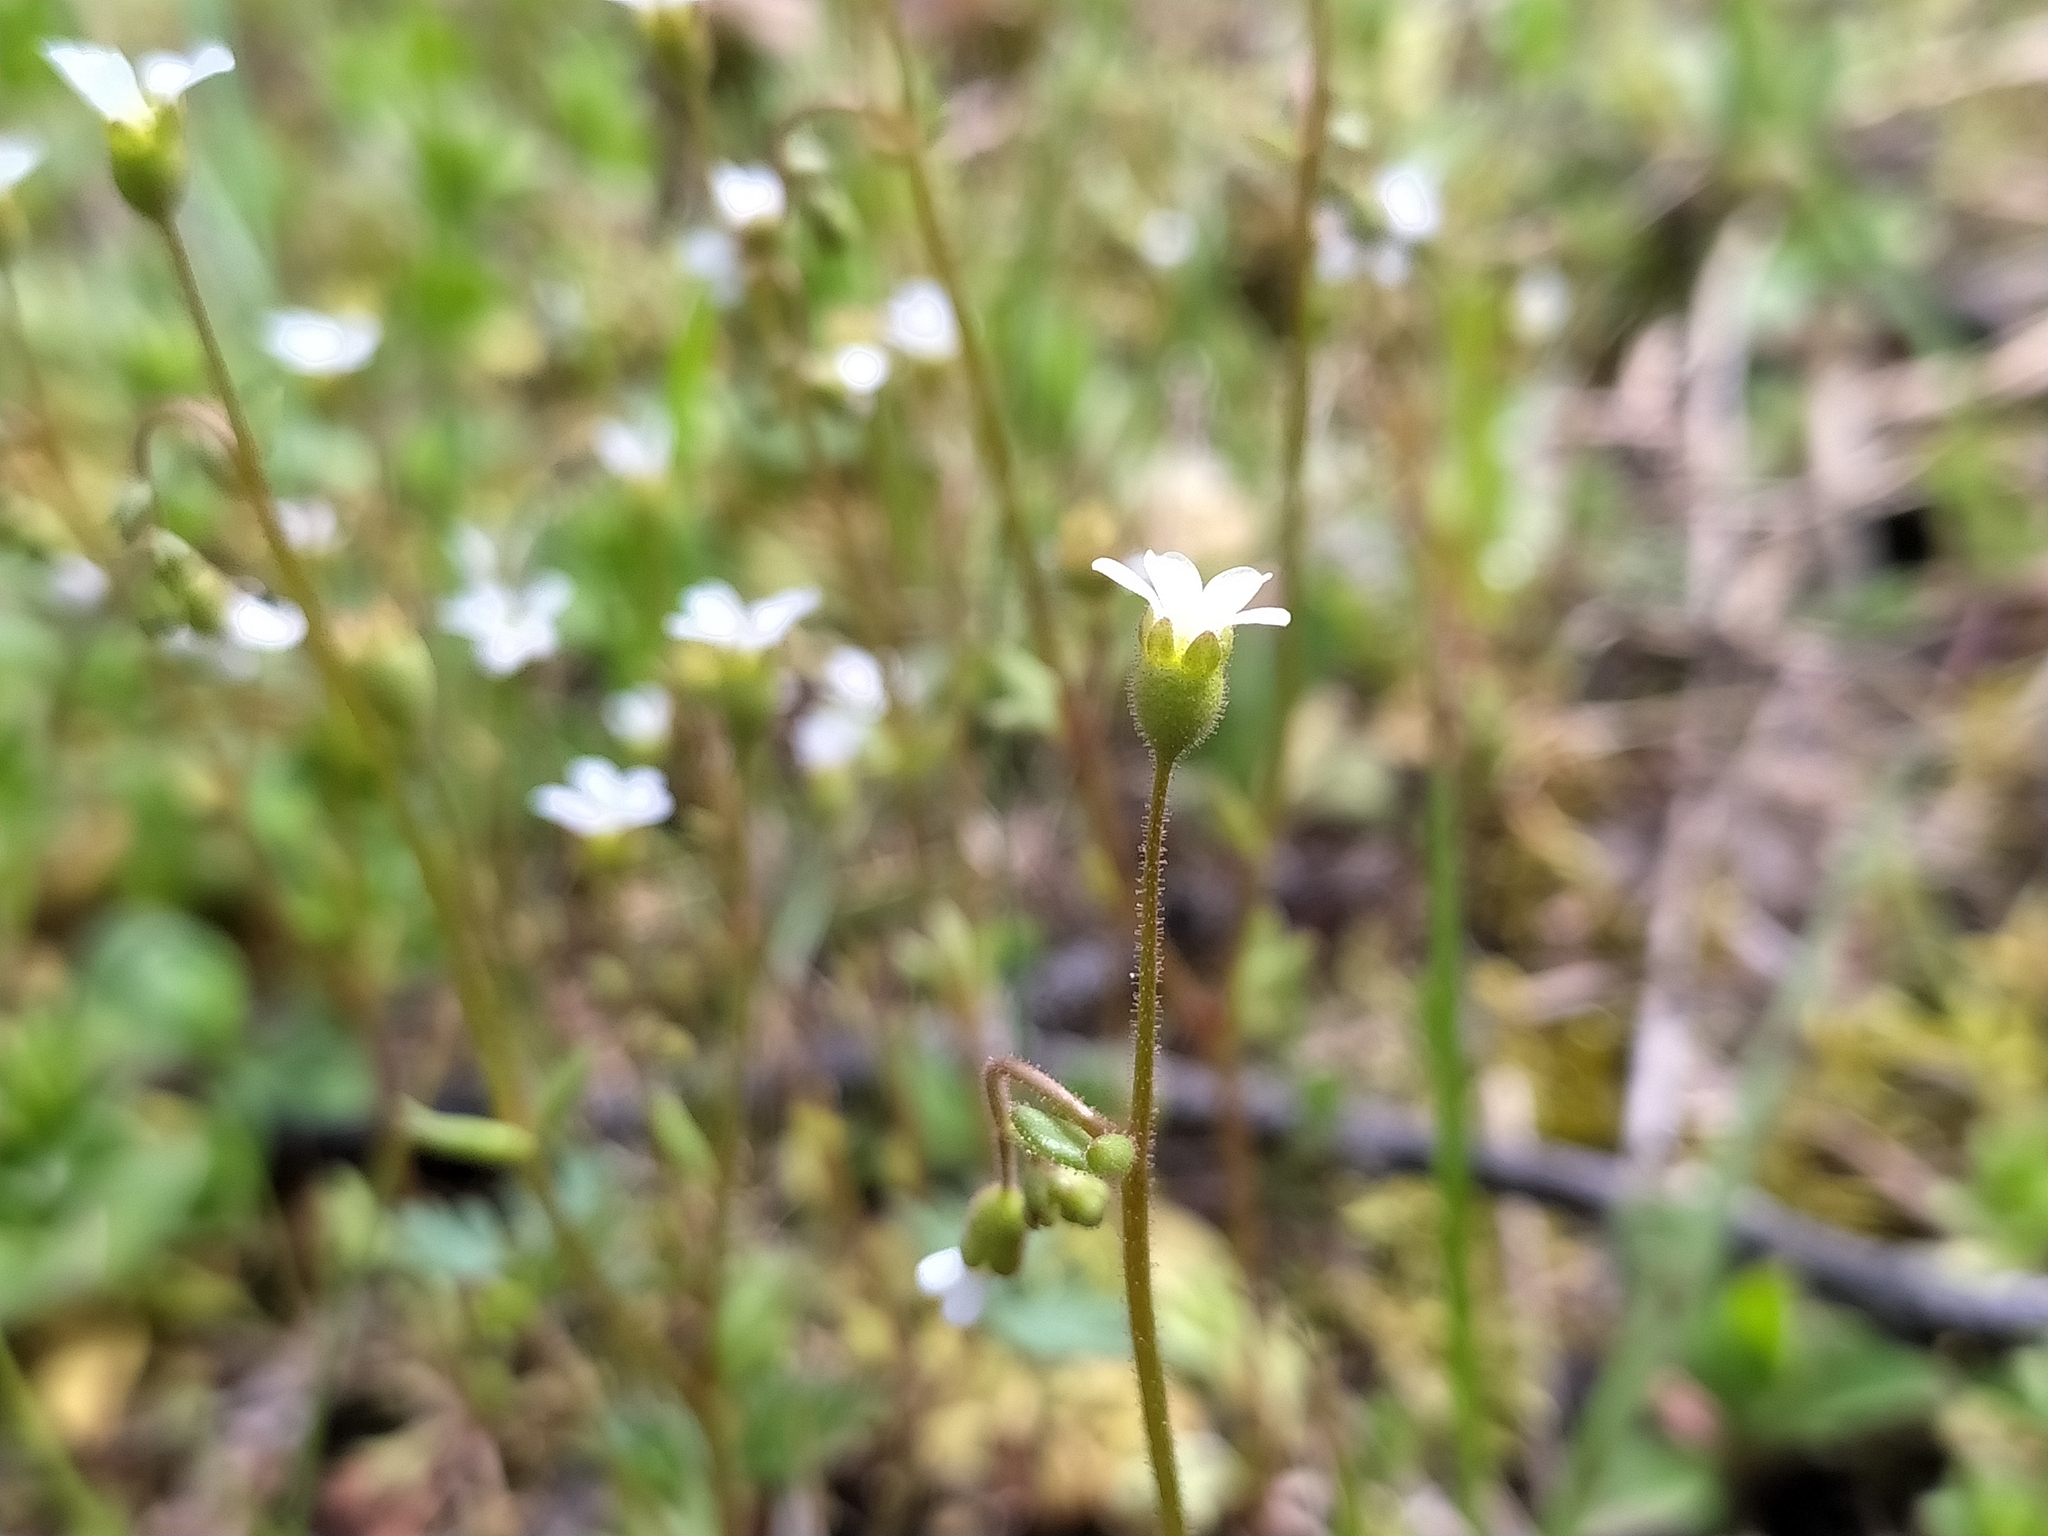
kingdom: Plantae
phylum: Tracheophyta
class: Magnoliopsida
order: Saxifragales
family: Saxifragaceae
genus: Saxifraga
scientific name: Saxifraga tridactylites
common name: Rue-leaved saxifrage
